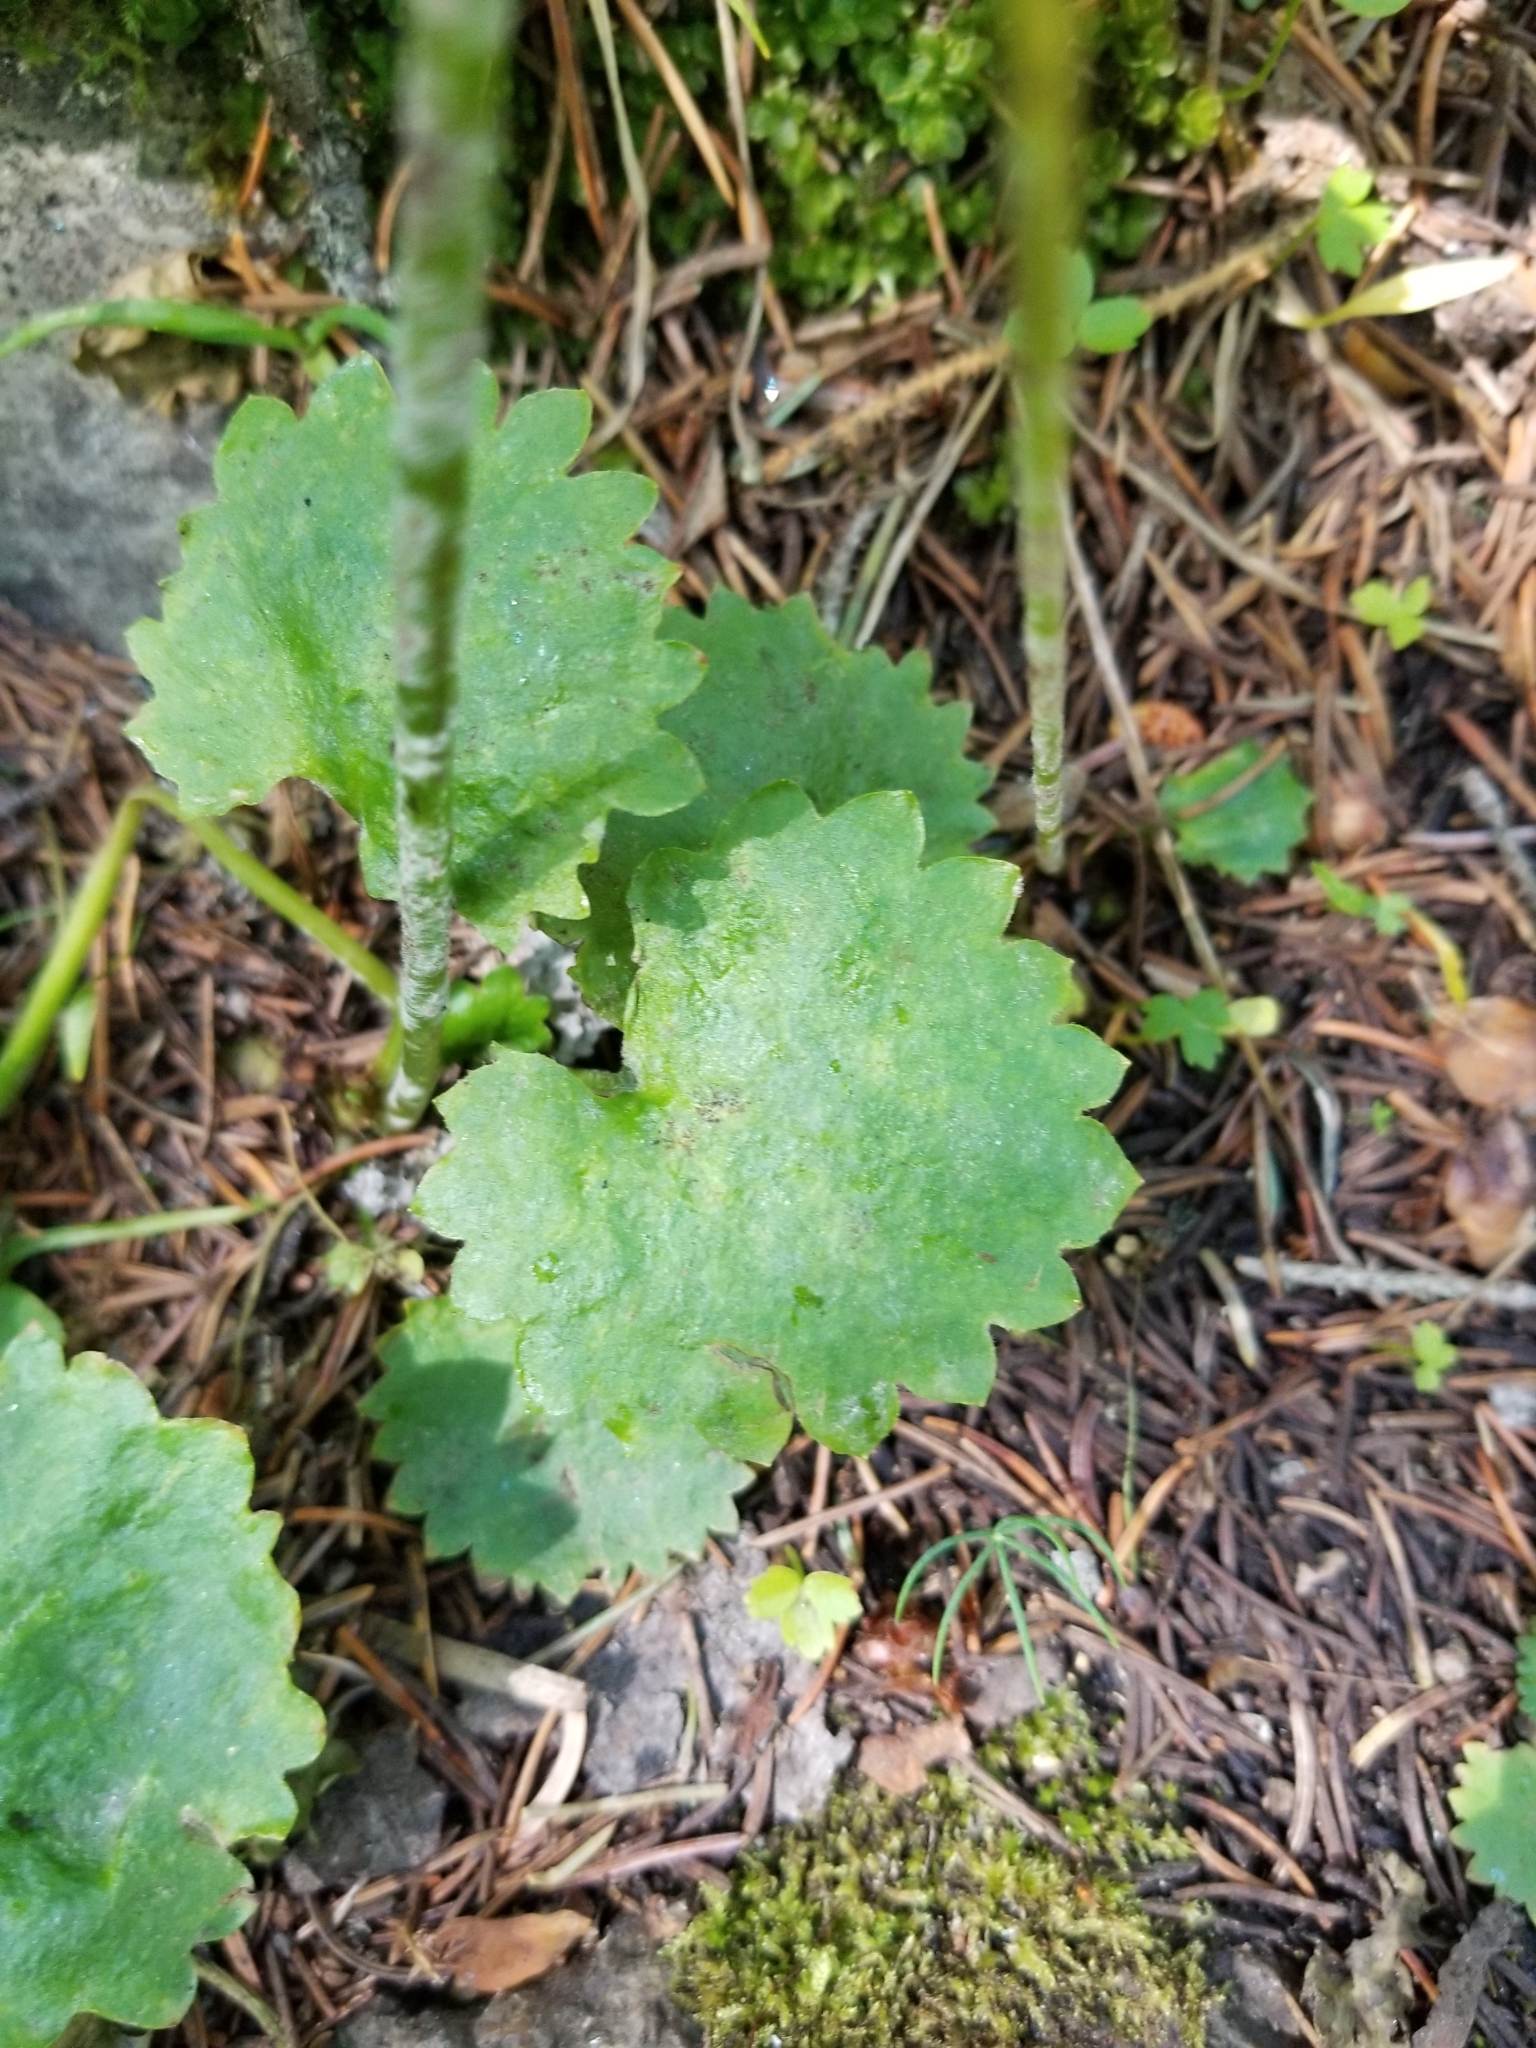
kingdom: Plantae
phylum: Tracheophyta
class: Magnoliopsida
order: Saxifragales
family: Saxifragaceae
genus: Micranthes
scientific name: Micranthes odontoloma
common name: Brook saxifrage
